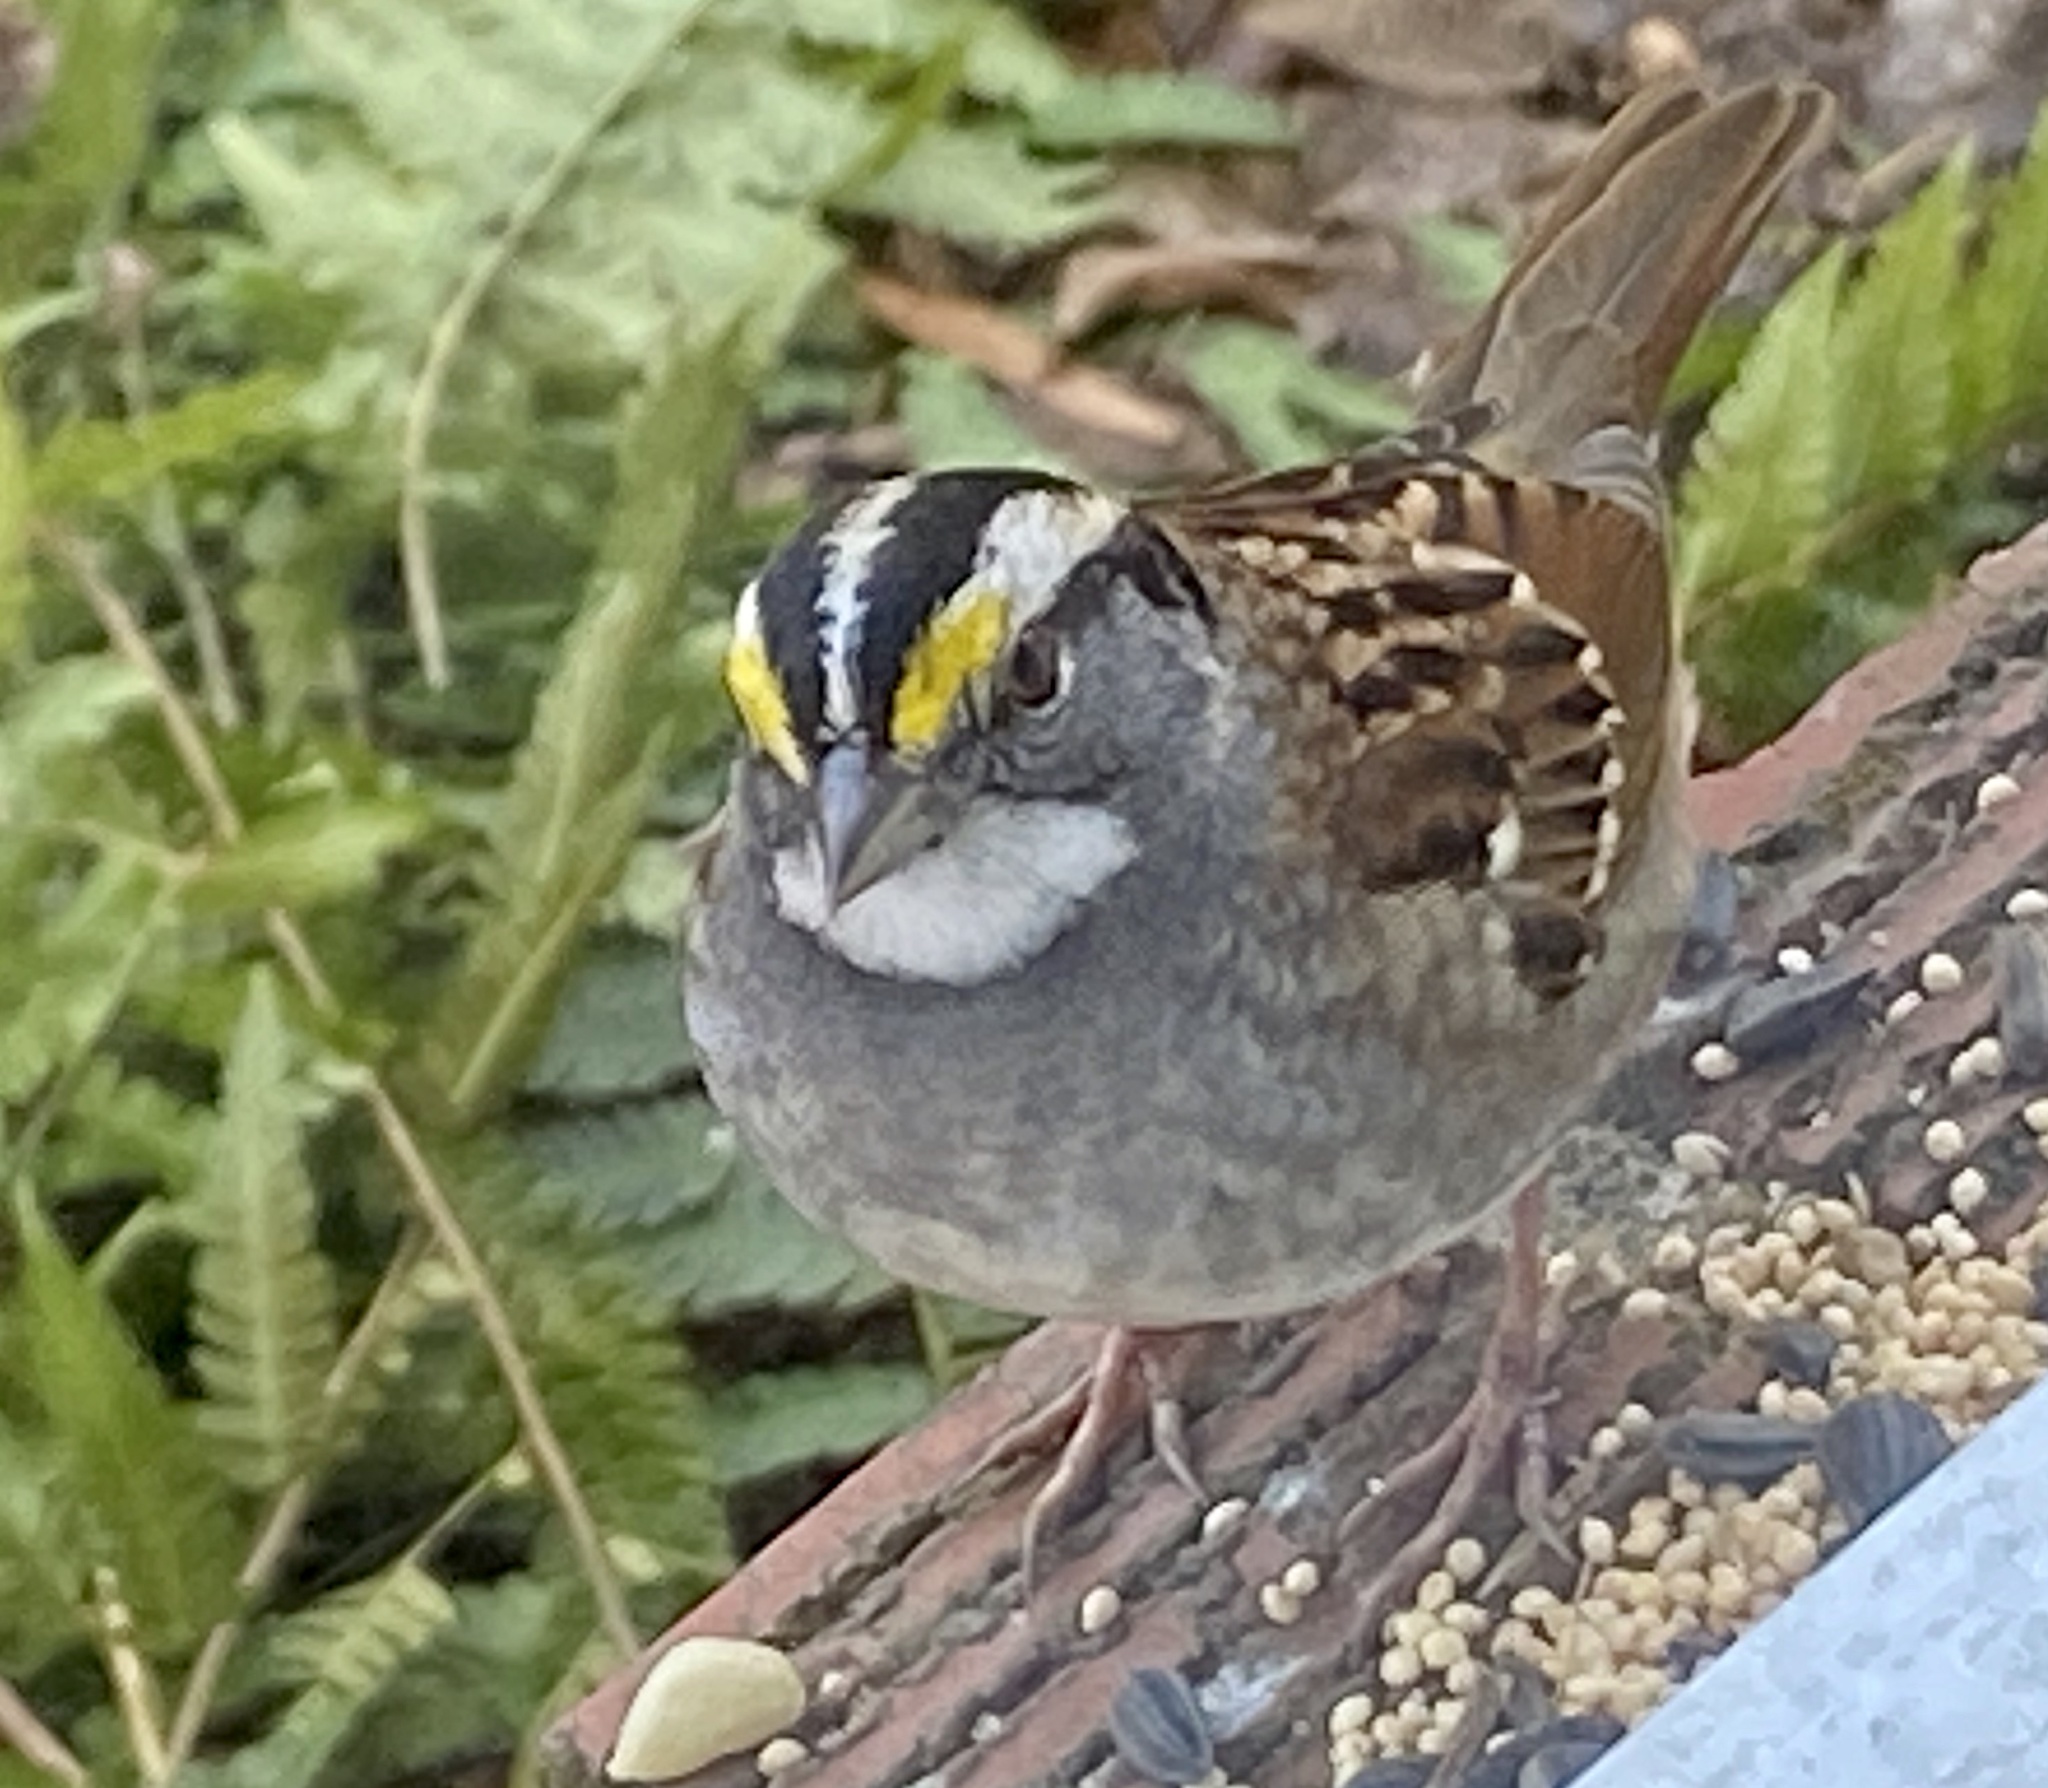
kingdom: Animalia
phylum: Chordata
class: Aves
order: Passeriformes
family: Passerellidae
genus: Zonotrichia
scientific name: Zonotrichia albicollis
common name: White-throated sparrow
